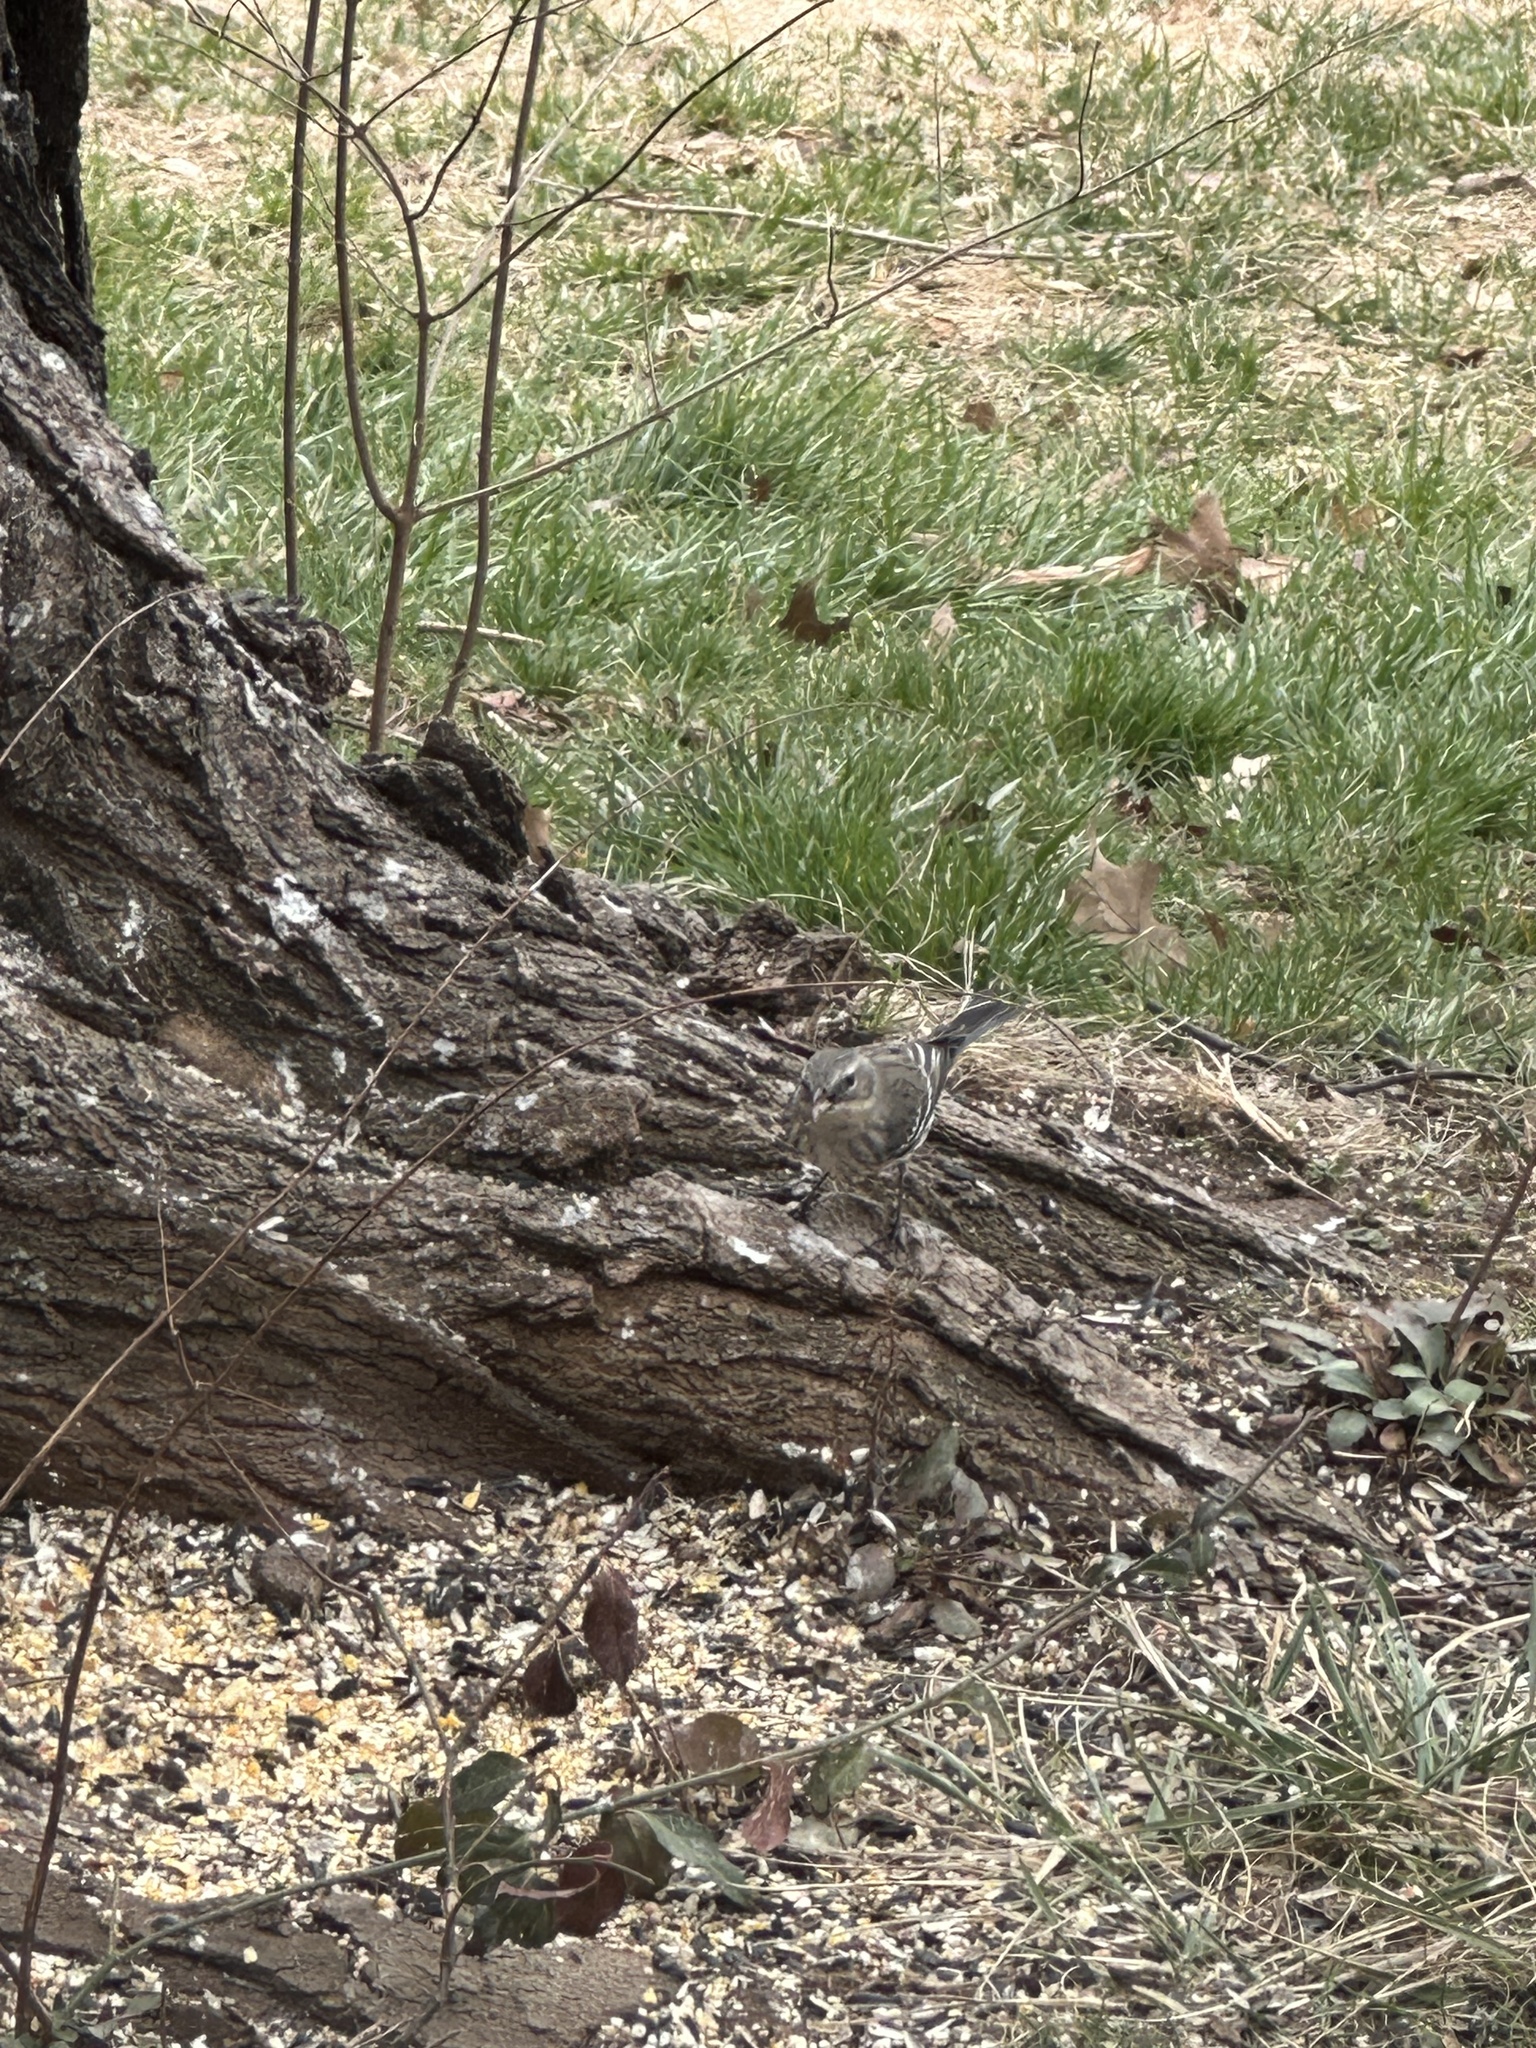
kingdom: Animalia
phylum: Chordata
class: Aves
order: Passeriformes
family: Parulidae
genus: Setophaga
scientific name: Setophaga coronata
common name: Myrtle warbler
